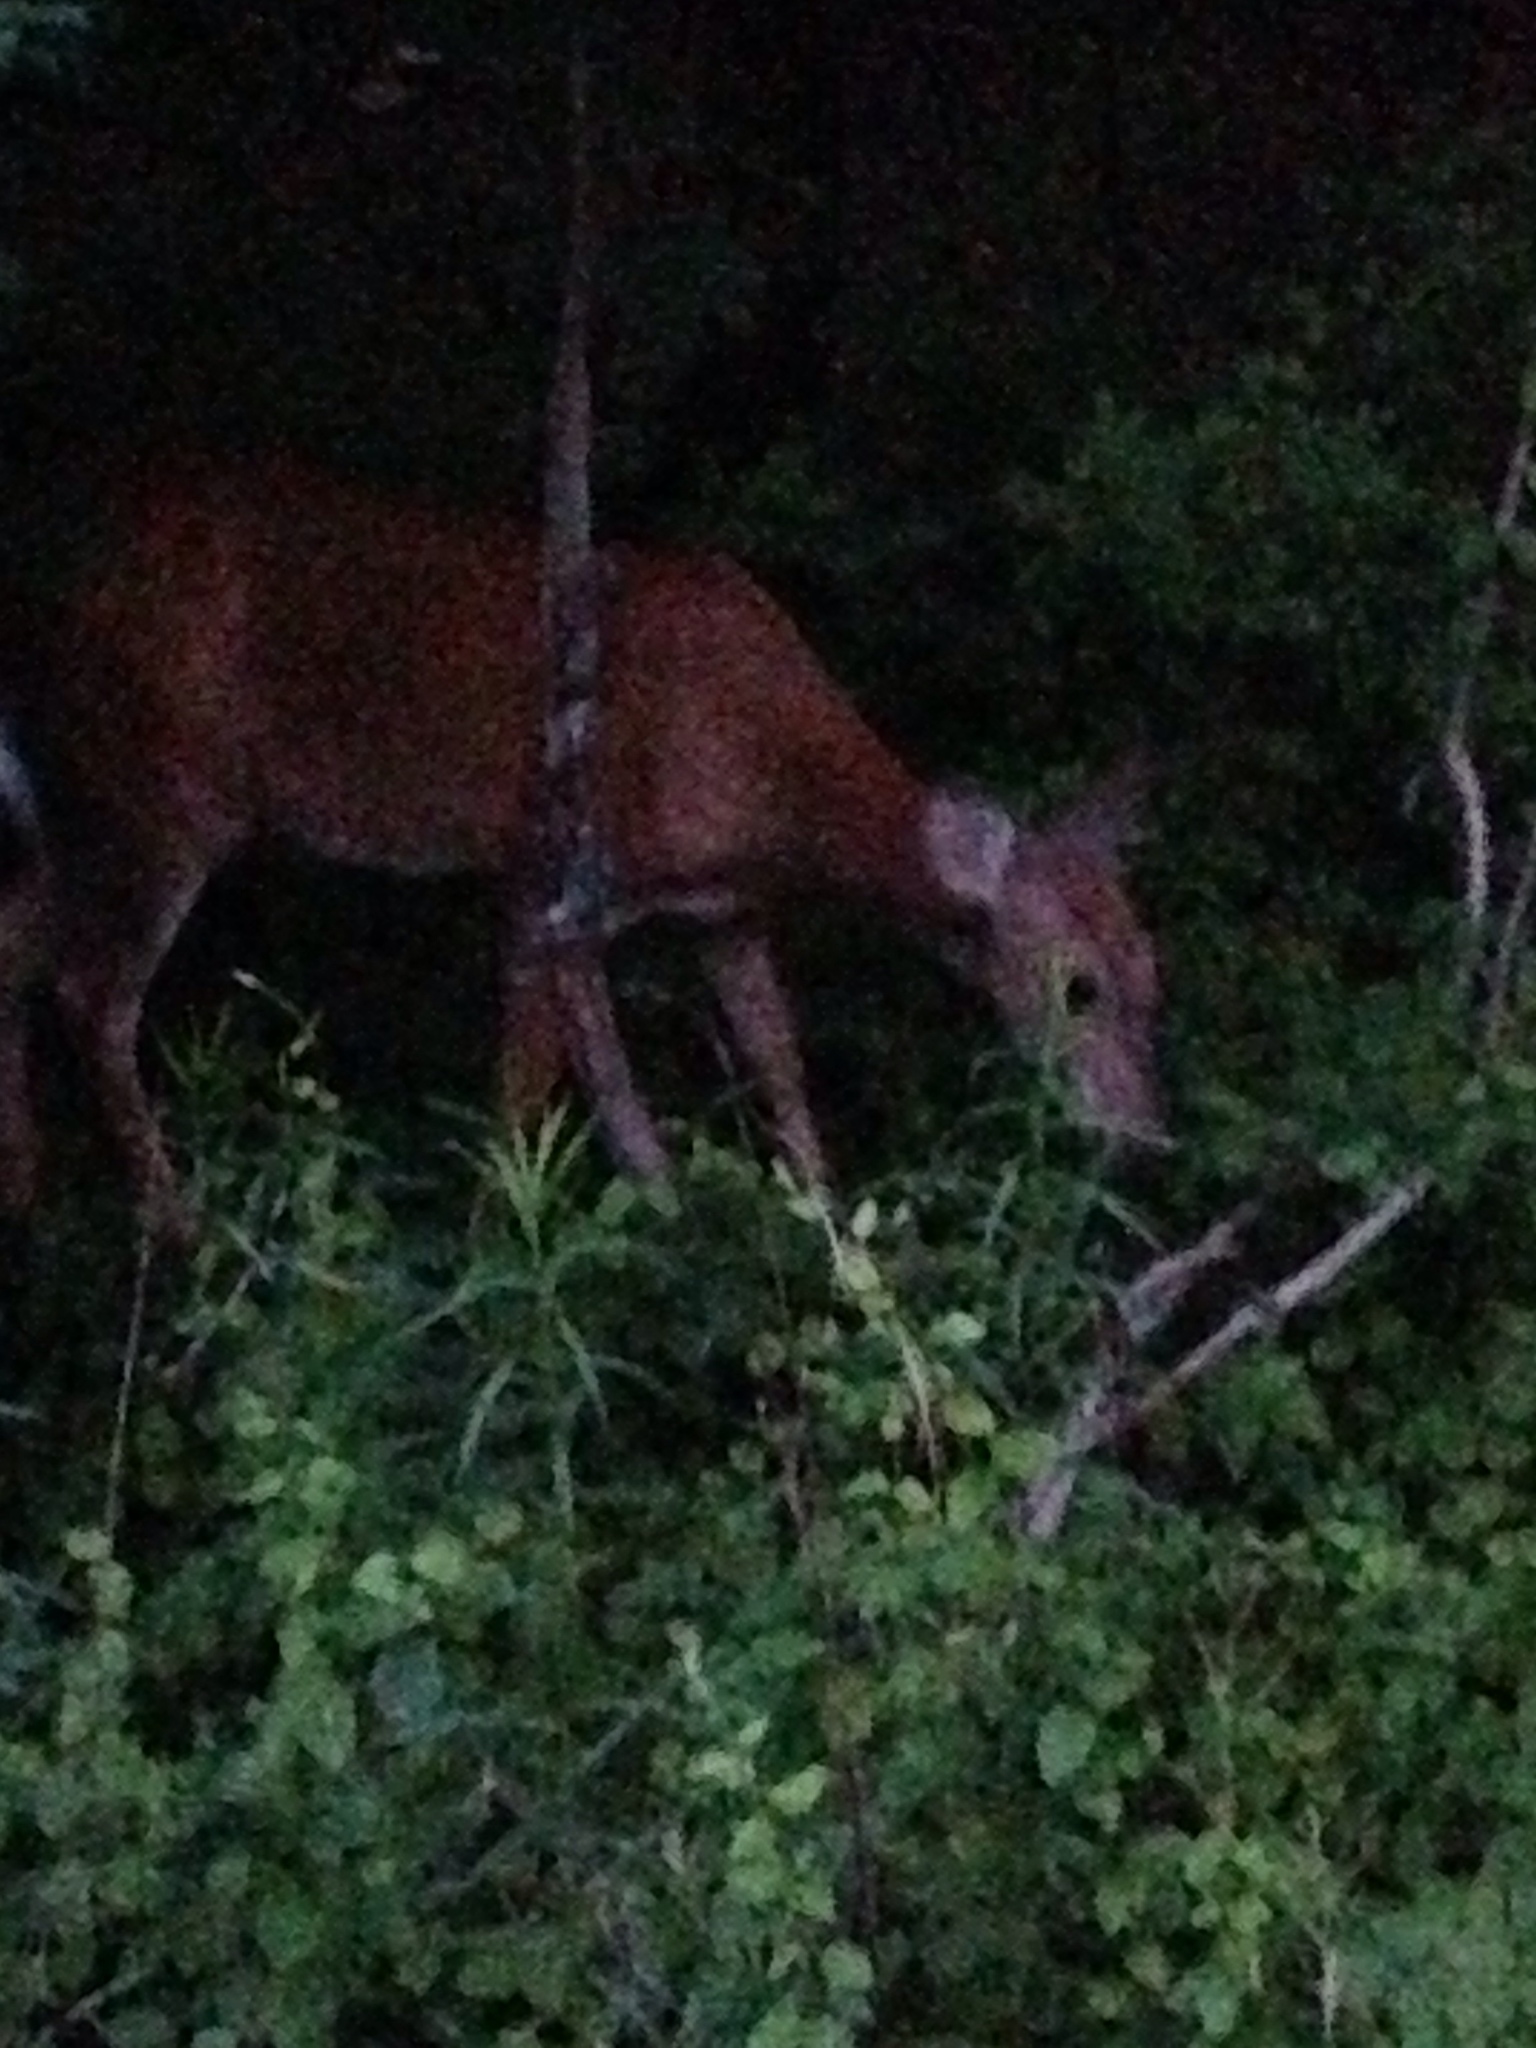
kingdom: Animalia
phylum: Chordata
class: Mammalia
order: Artiodactyla
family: Cervidae
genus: Odocoileus
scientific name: Odocoileus virginianus
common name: White-tailed deer
